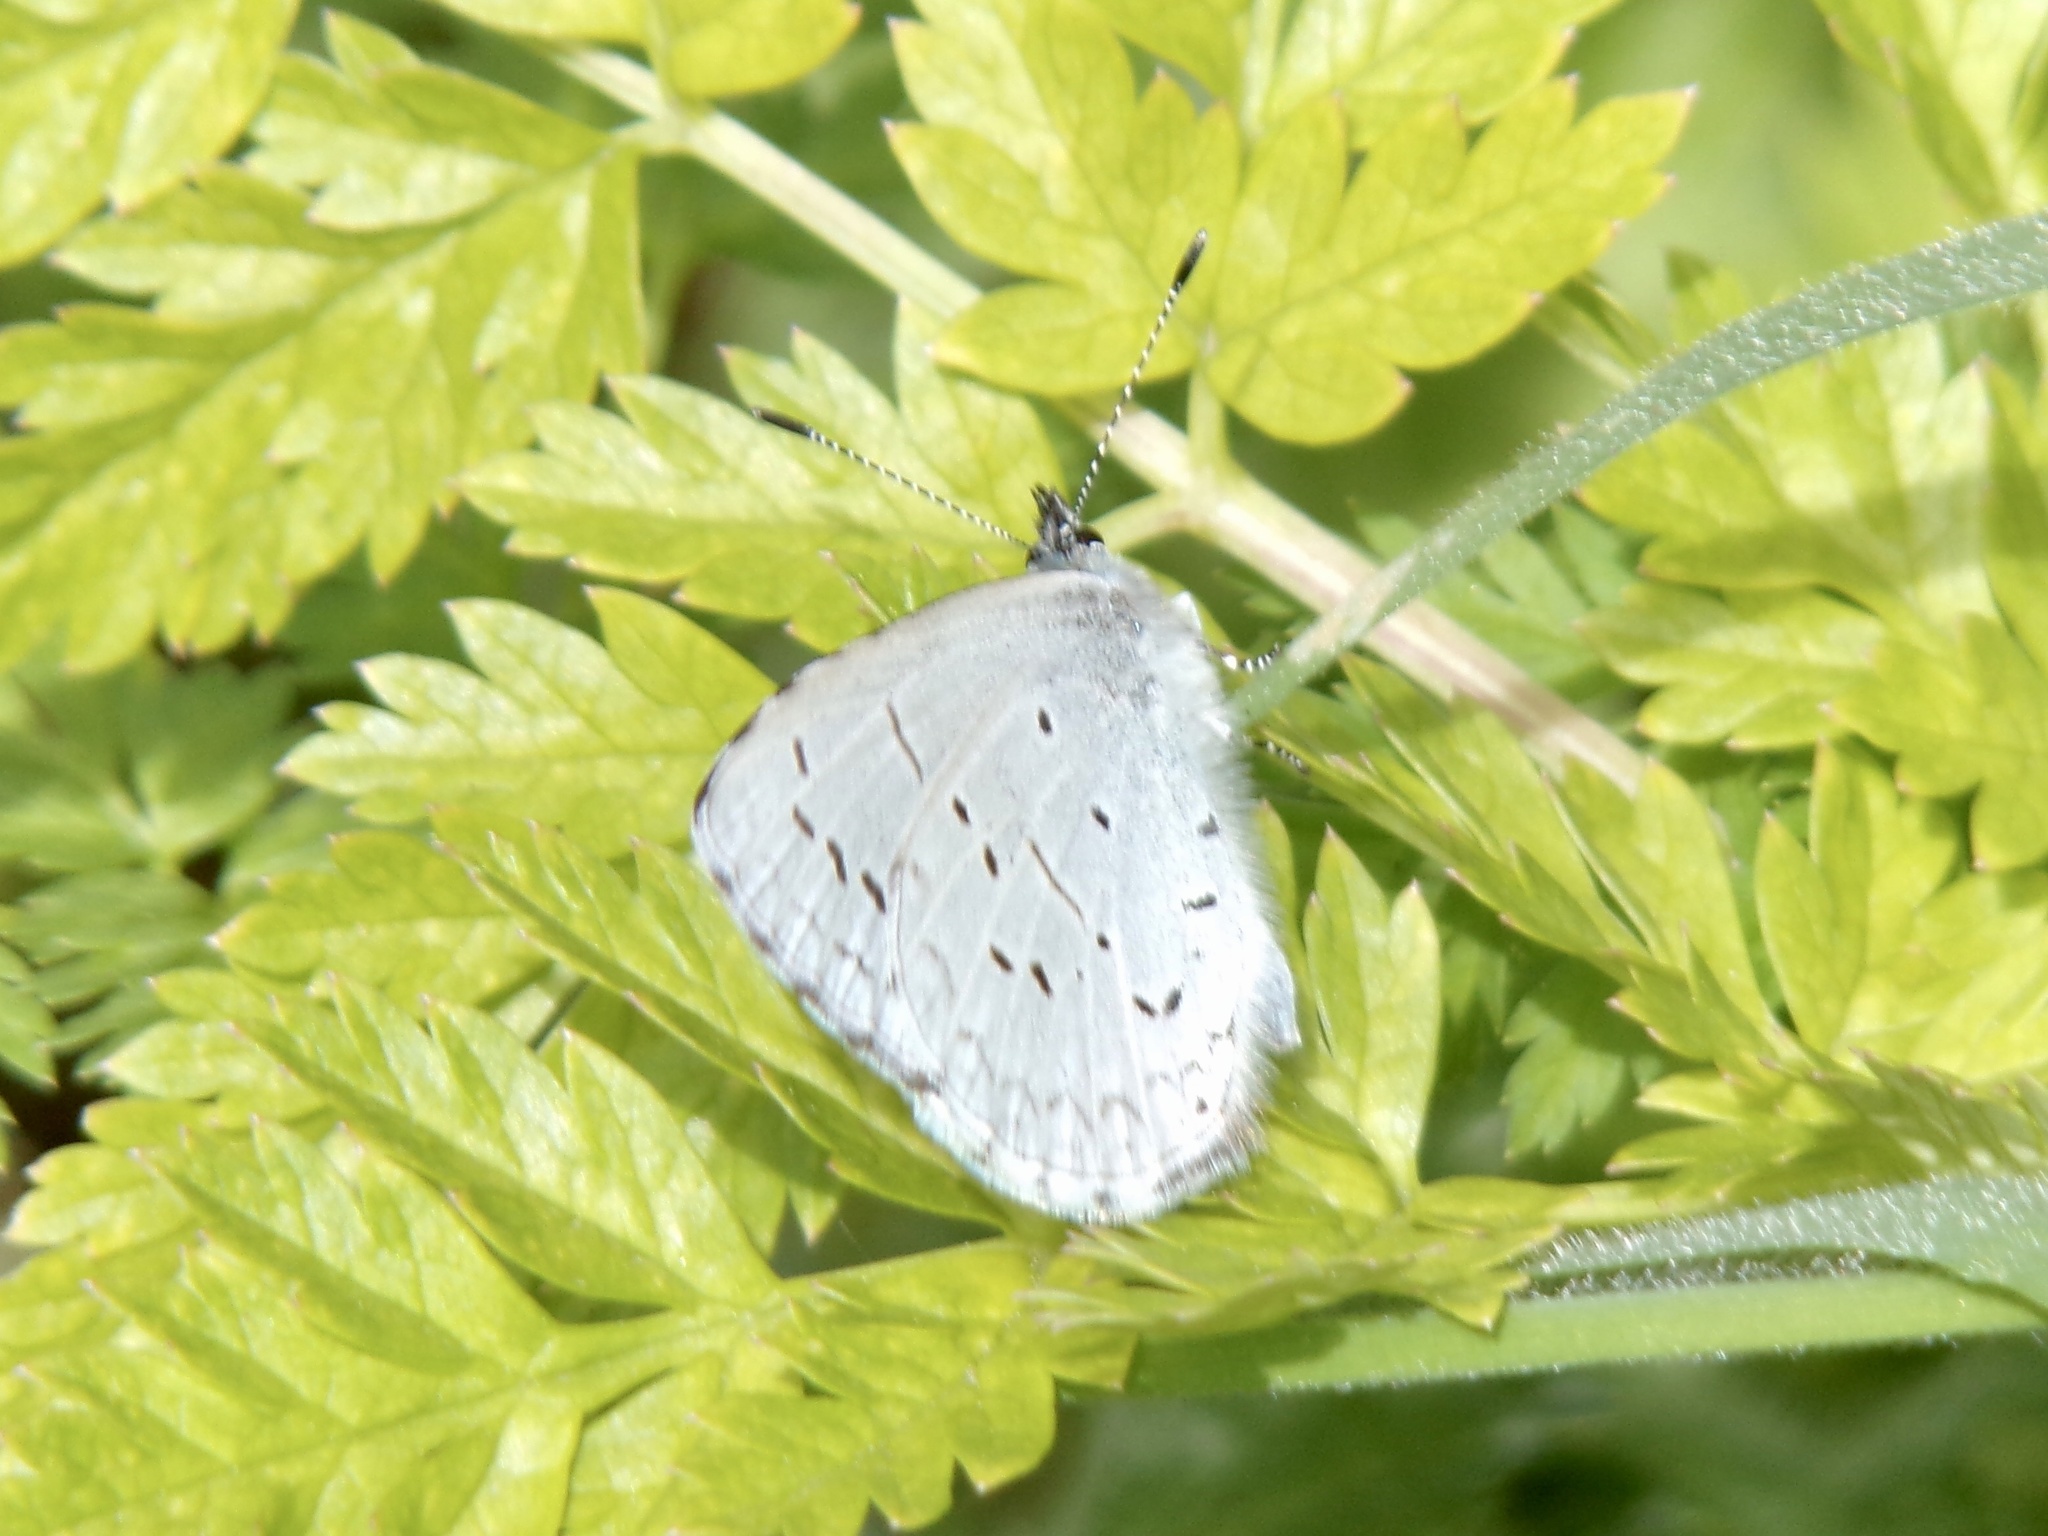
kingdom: Animalia
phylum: Arthropoda
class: Insecta
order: Lepidoptera
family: Lycaenidae
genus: Celastrina
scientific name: Celastrina ladon
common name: Spring azure
